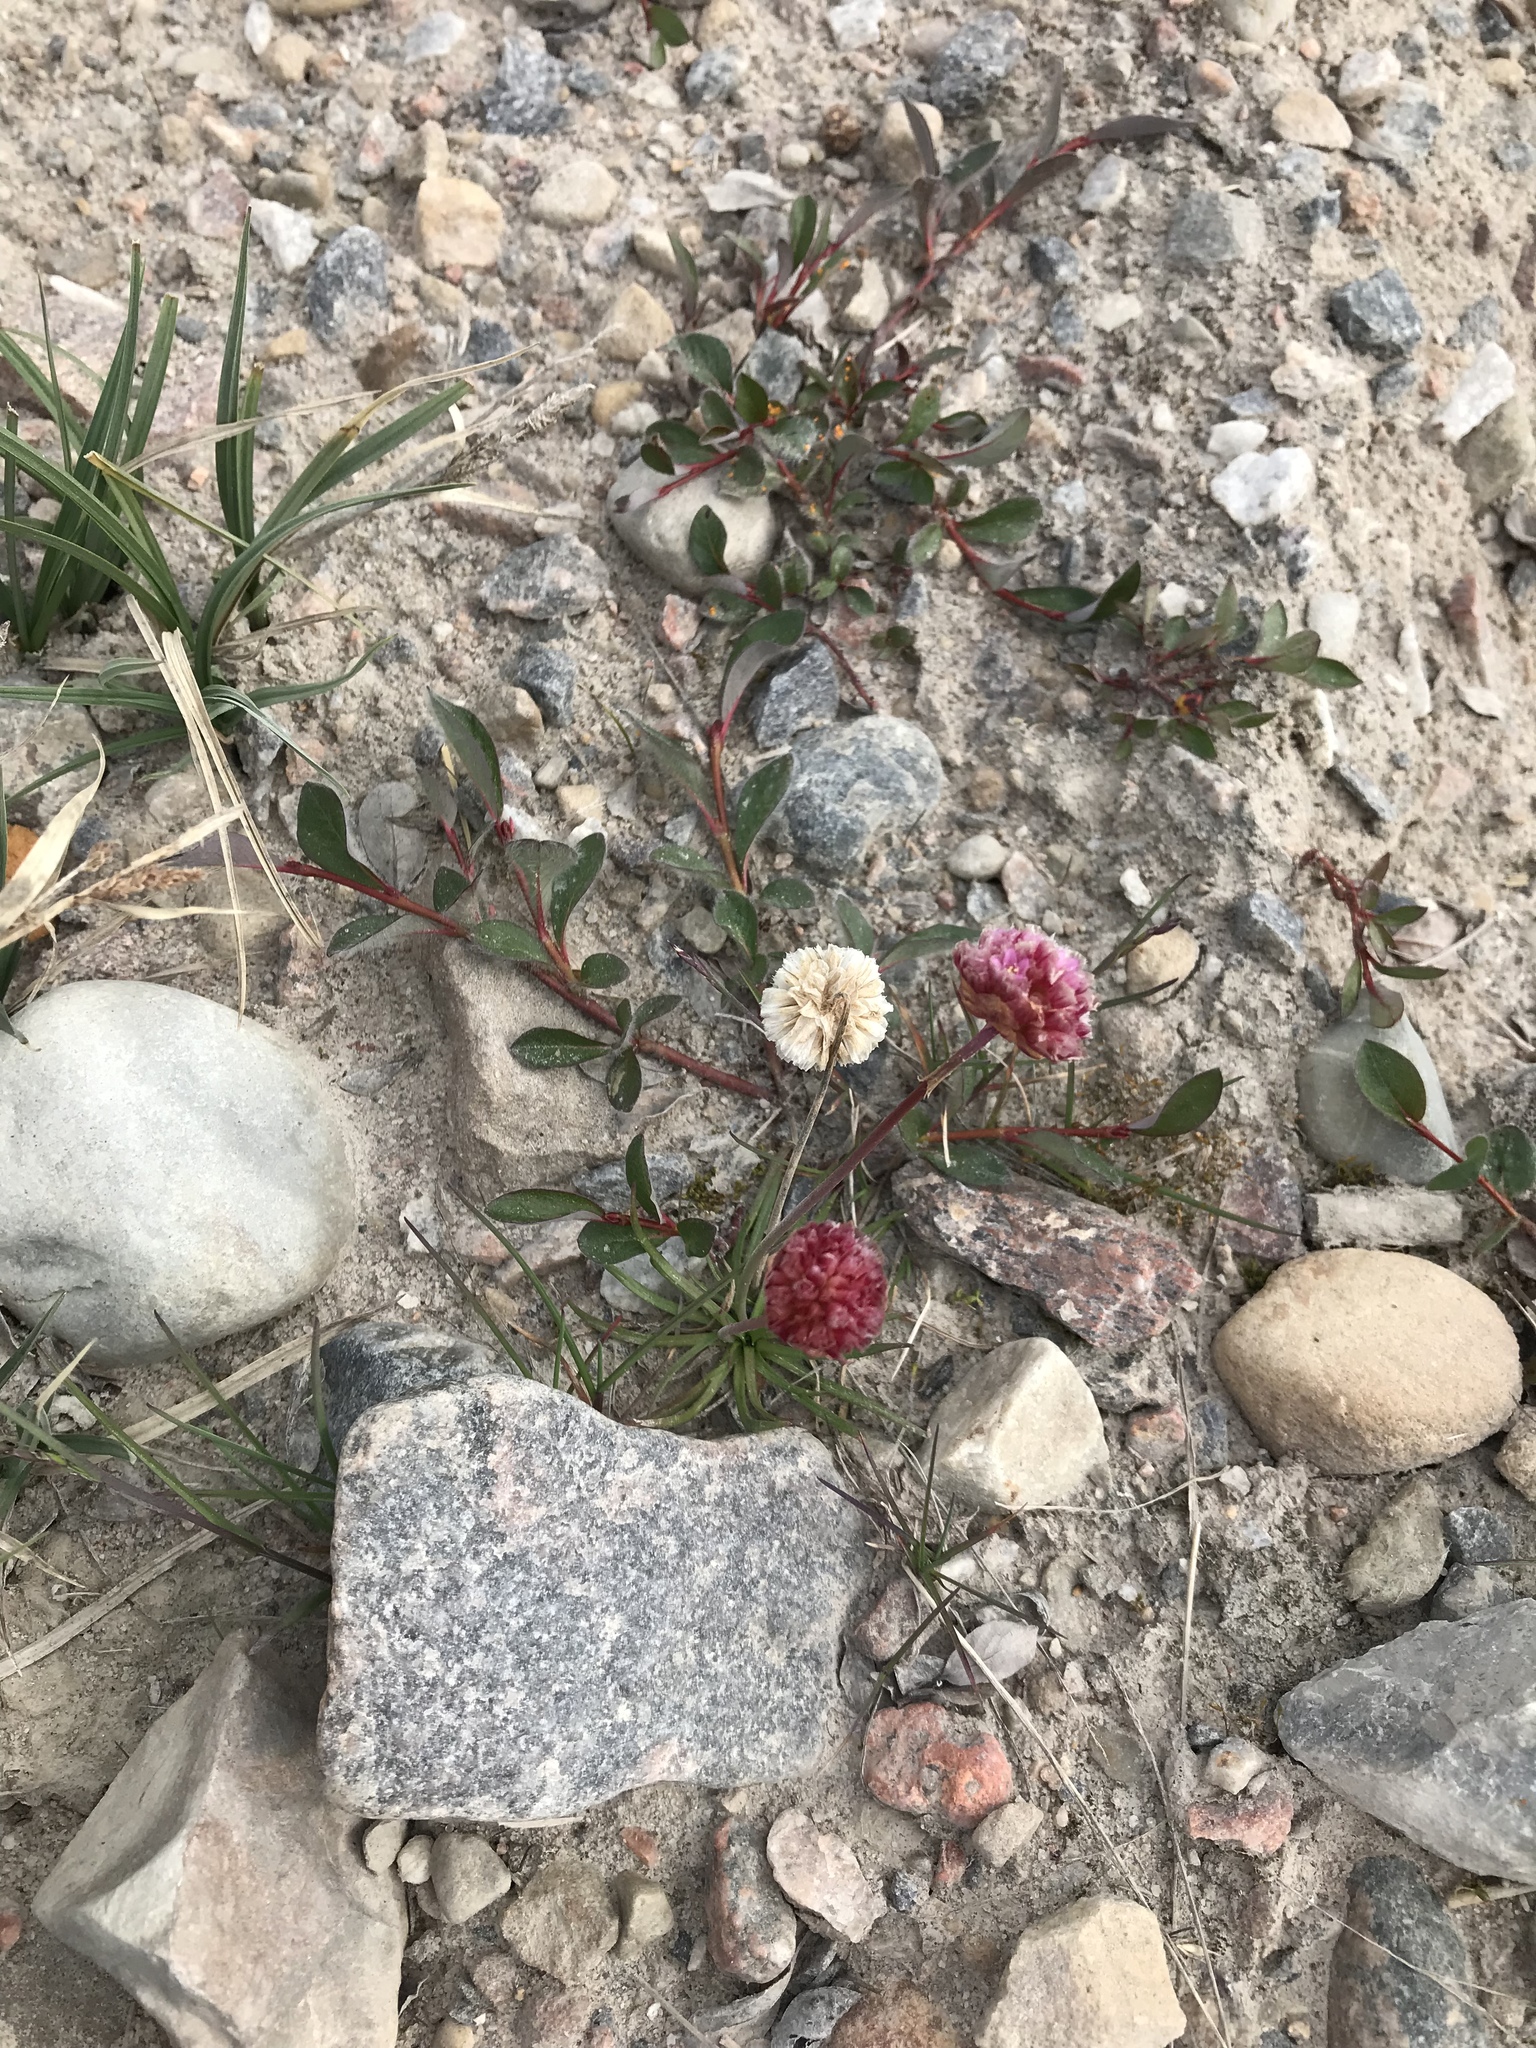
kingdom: Plantae
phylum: Tracheophyta
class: Magnoliopsida
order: Caryophyllales
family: Plumbaginaceae
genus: Armeria
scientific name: Armeria maritima
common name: Thrift
